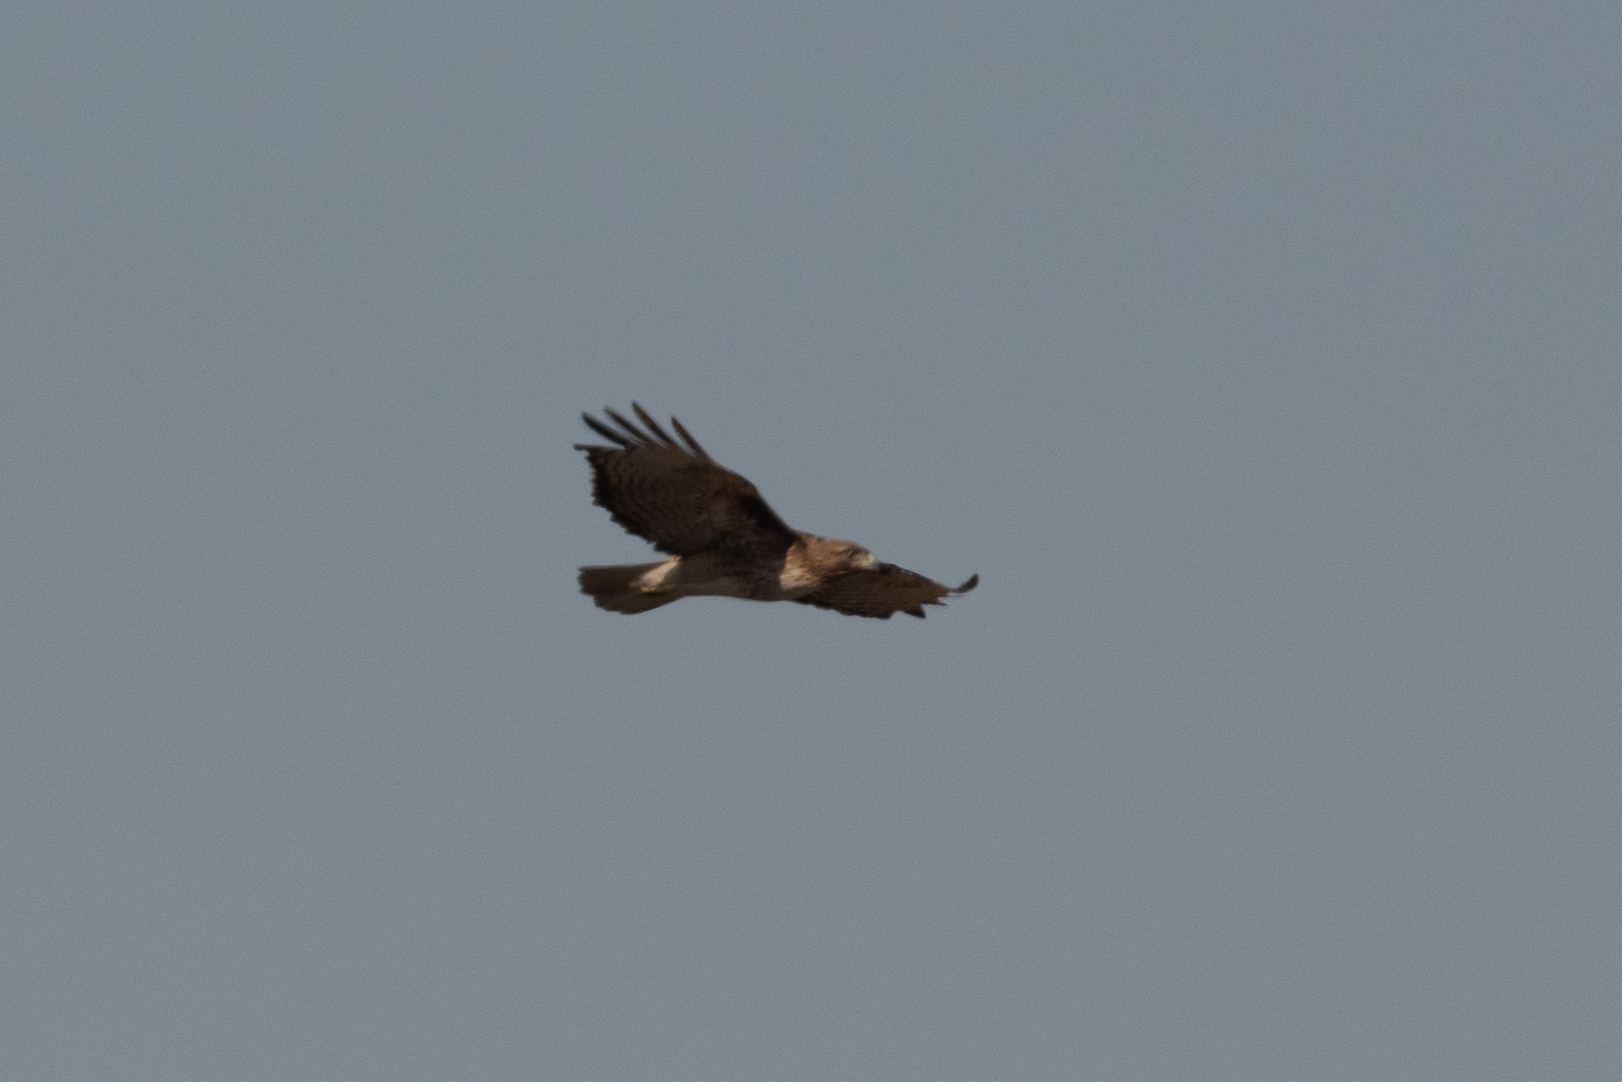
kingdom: Animalia
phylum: Chordata
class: Aves
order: Accipitriformes
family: Accipitridae
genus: Buteo
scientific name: Buteo jamaicensis
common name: Red-tailed hawk
